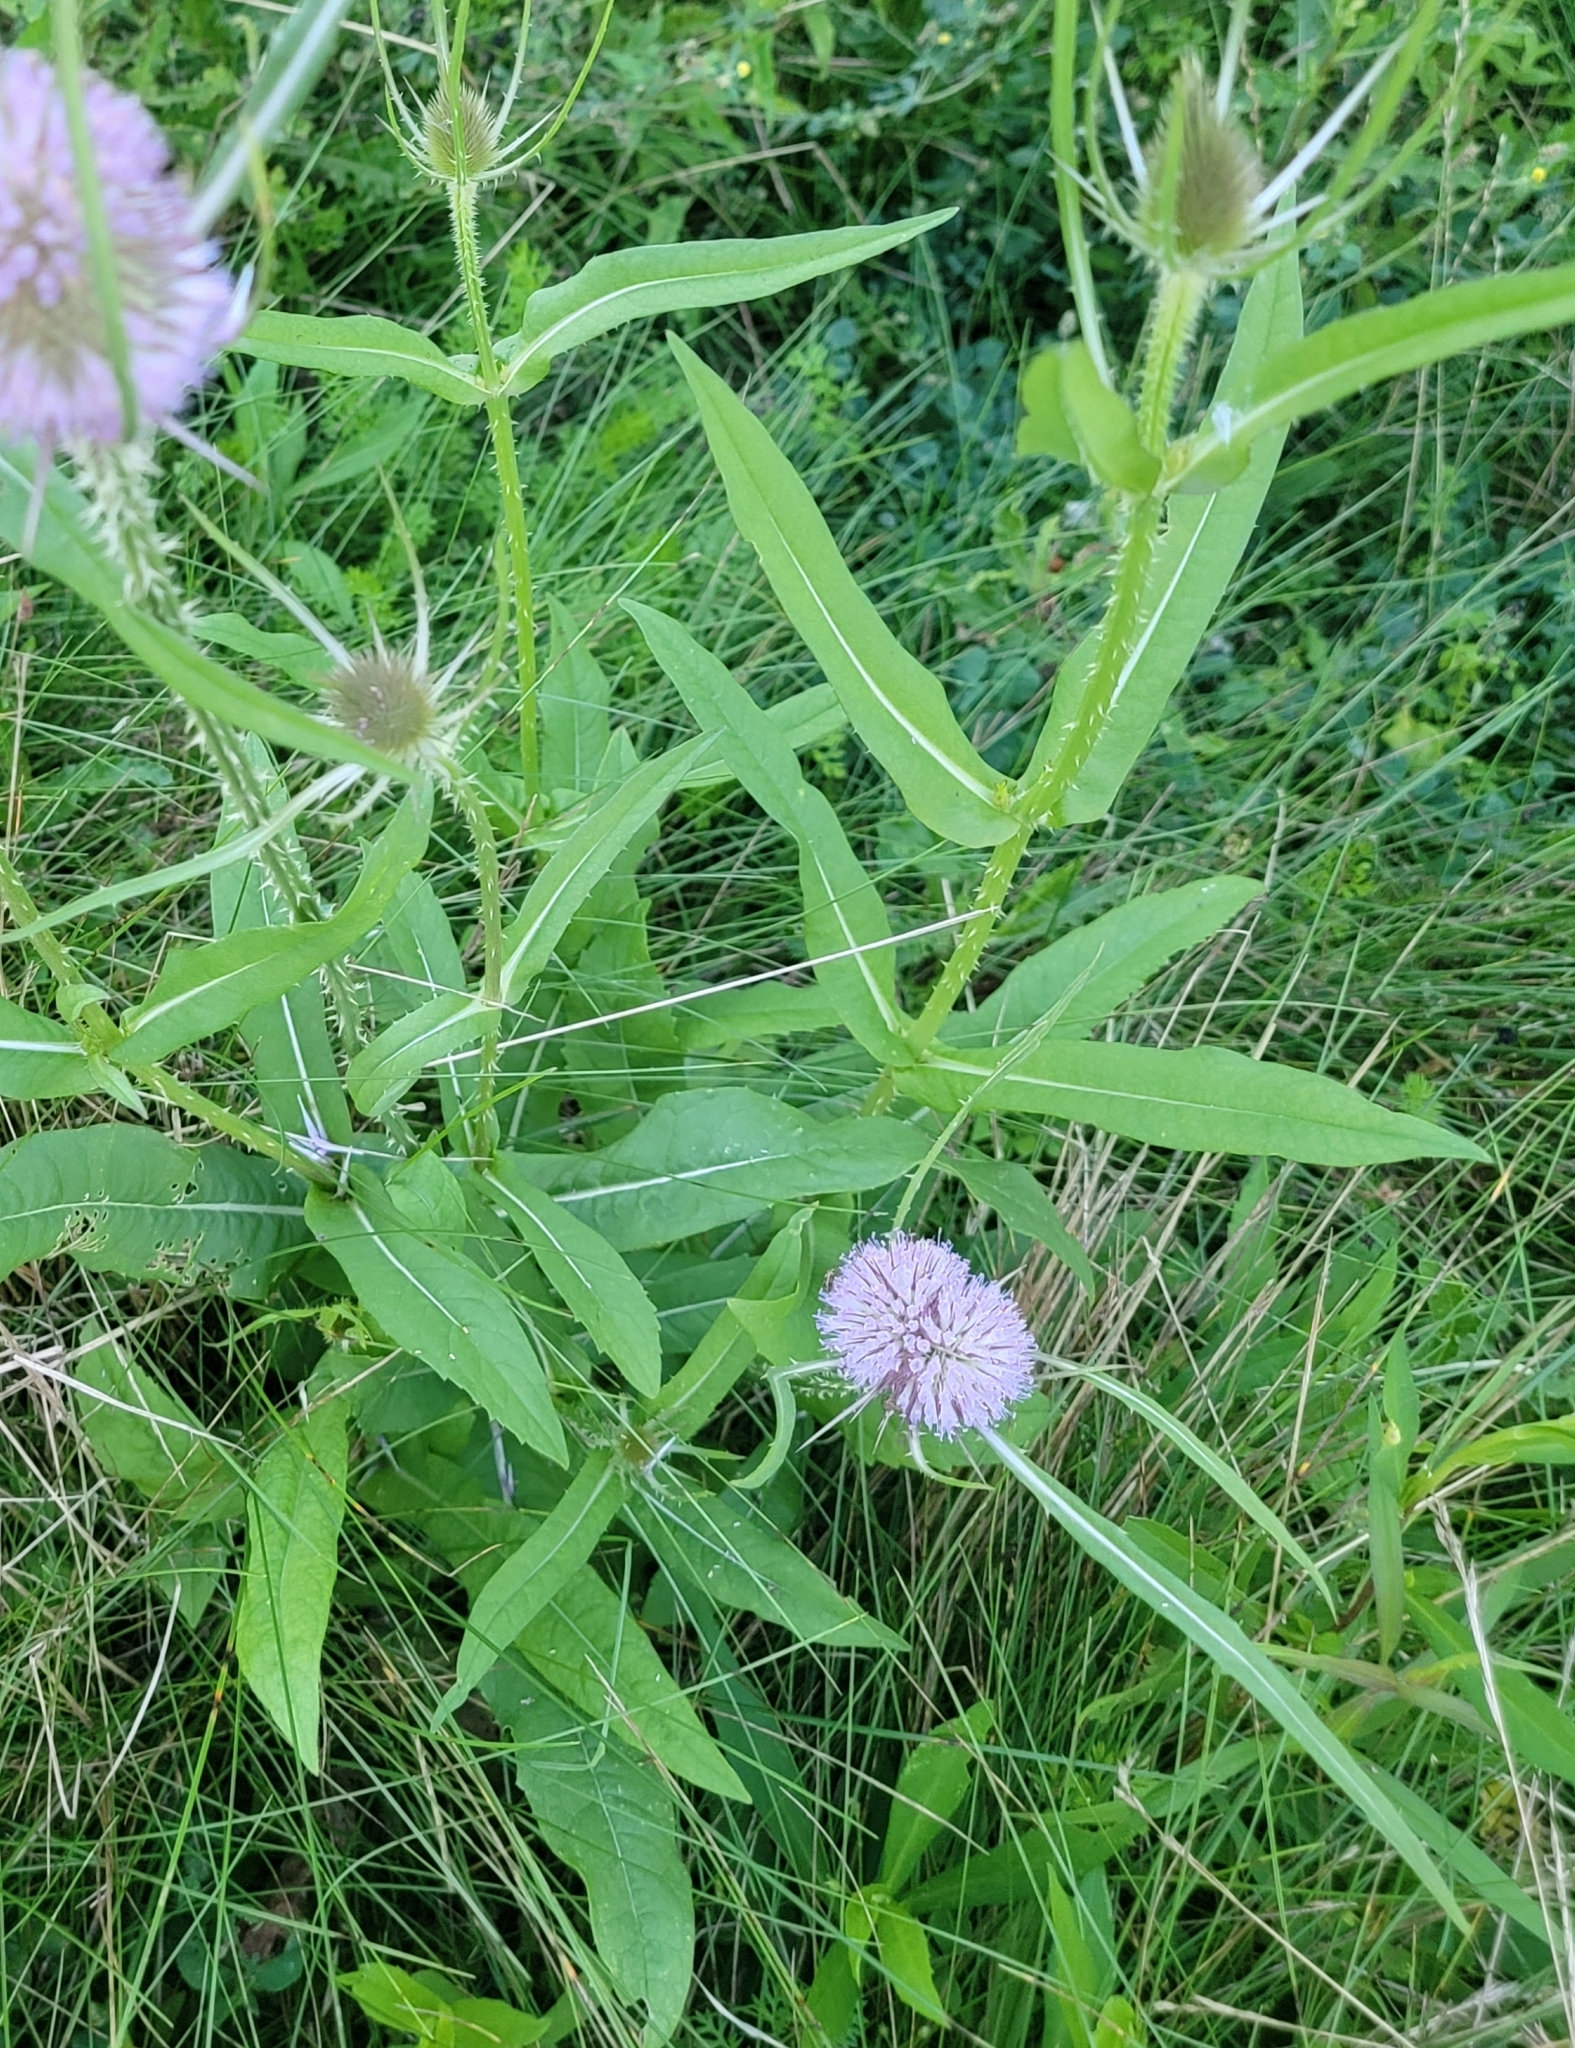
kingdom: Plantae
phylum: Tracheophyta
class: Magnoliopsida
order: Dipsacales
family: Caprifoliaceae
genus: Dipsacus
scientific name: Dipsacus fullonum
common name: Teasel
